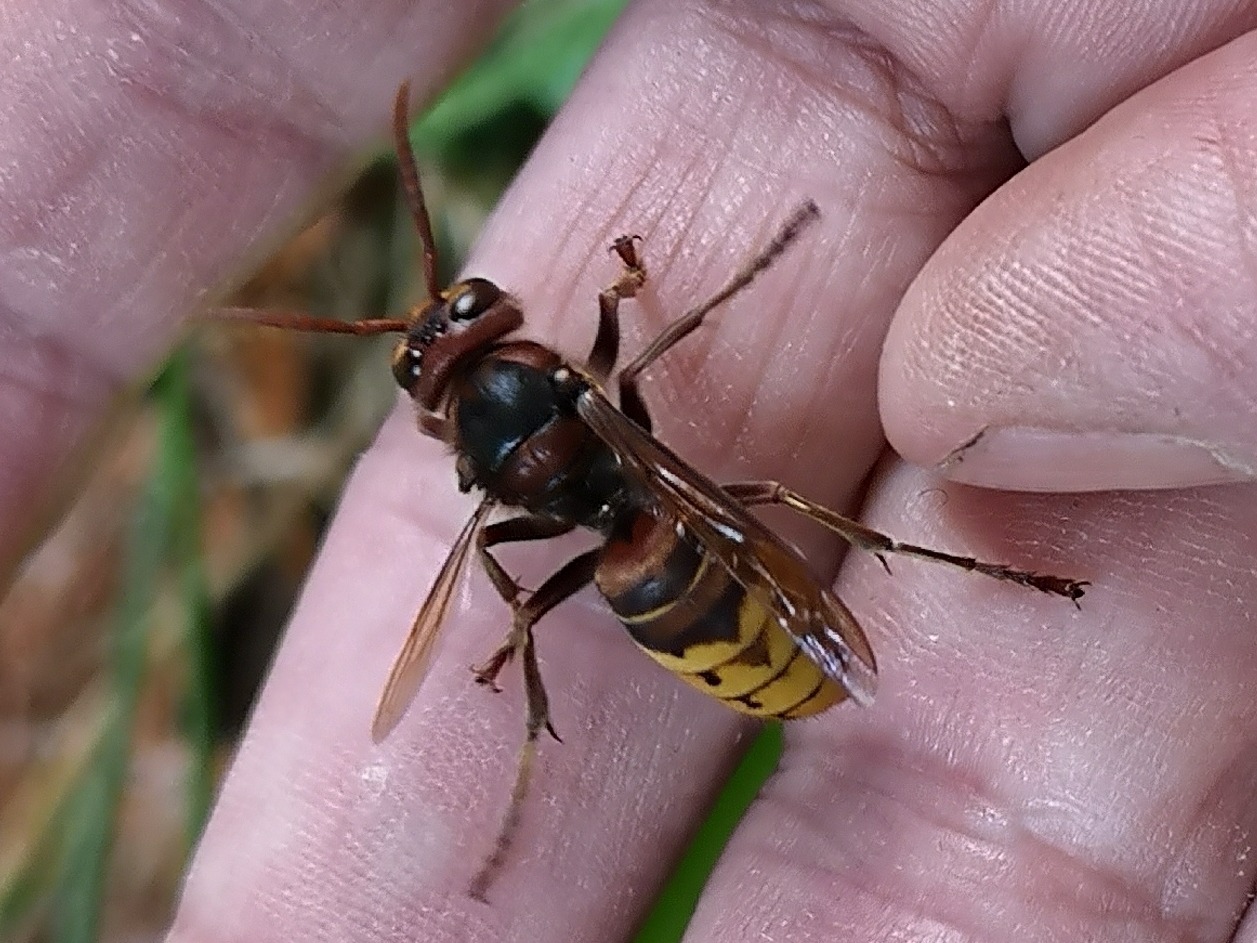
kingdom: Animalia
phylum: Arthropoda
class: Insecta
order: Hymenoptera
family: Vespidae
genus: Vespa
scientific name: Vespa crabro
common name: Hornet
